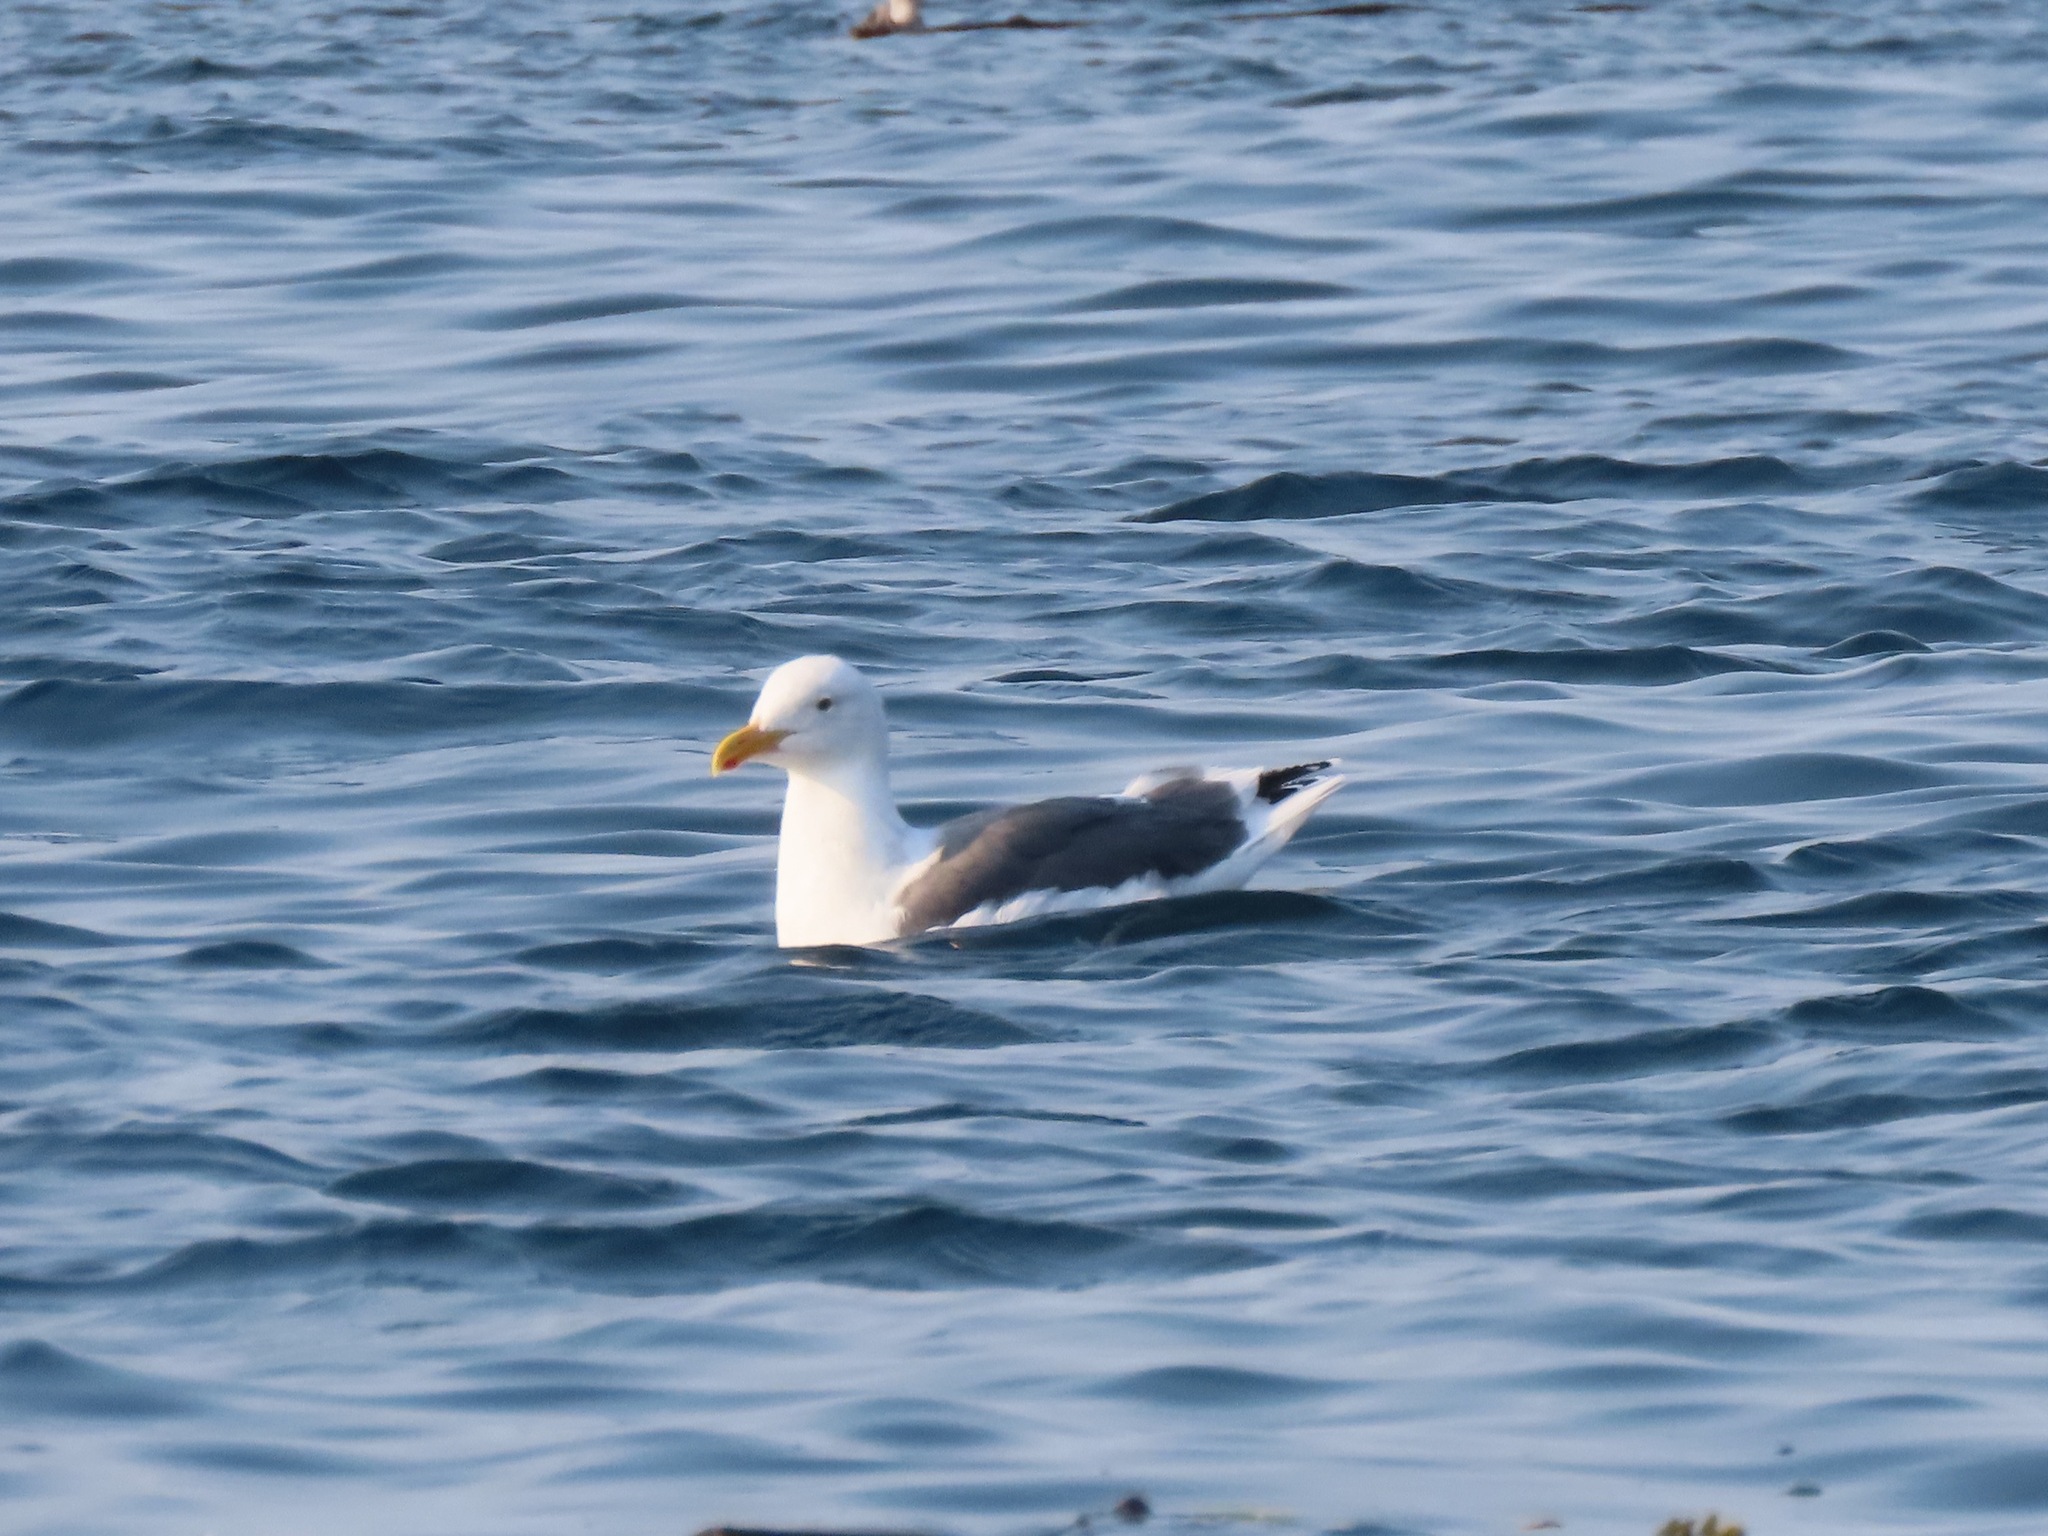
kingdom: Animalia
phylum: Chordata
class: Aves
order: Charadriiformes
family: Laridae
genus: Larus
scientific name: Larus occidentalis
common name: Western gull
